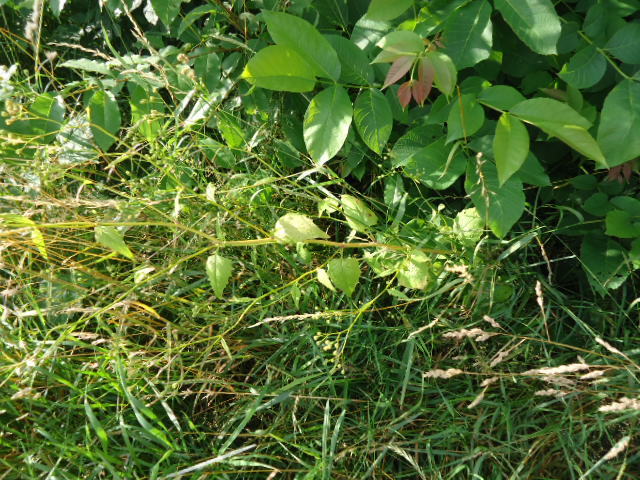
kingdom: Plantae
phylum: Tracheophyta
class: Magnoliopsida
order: Asterales
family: Asteraceae
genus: Lapsana
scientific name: Lapsana communis
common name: Nipplewort
